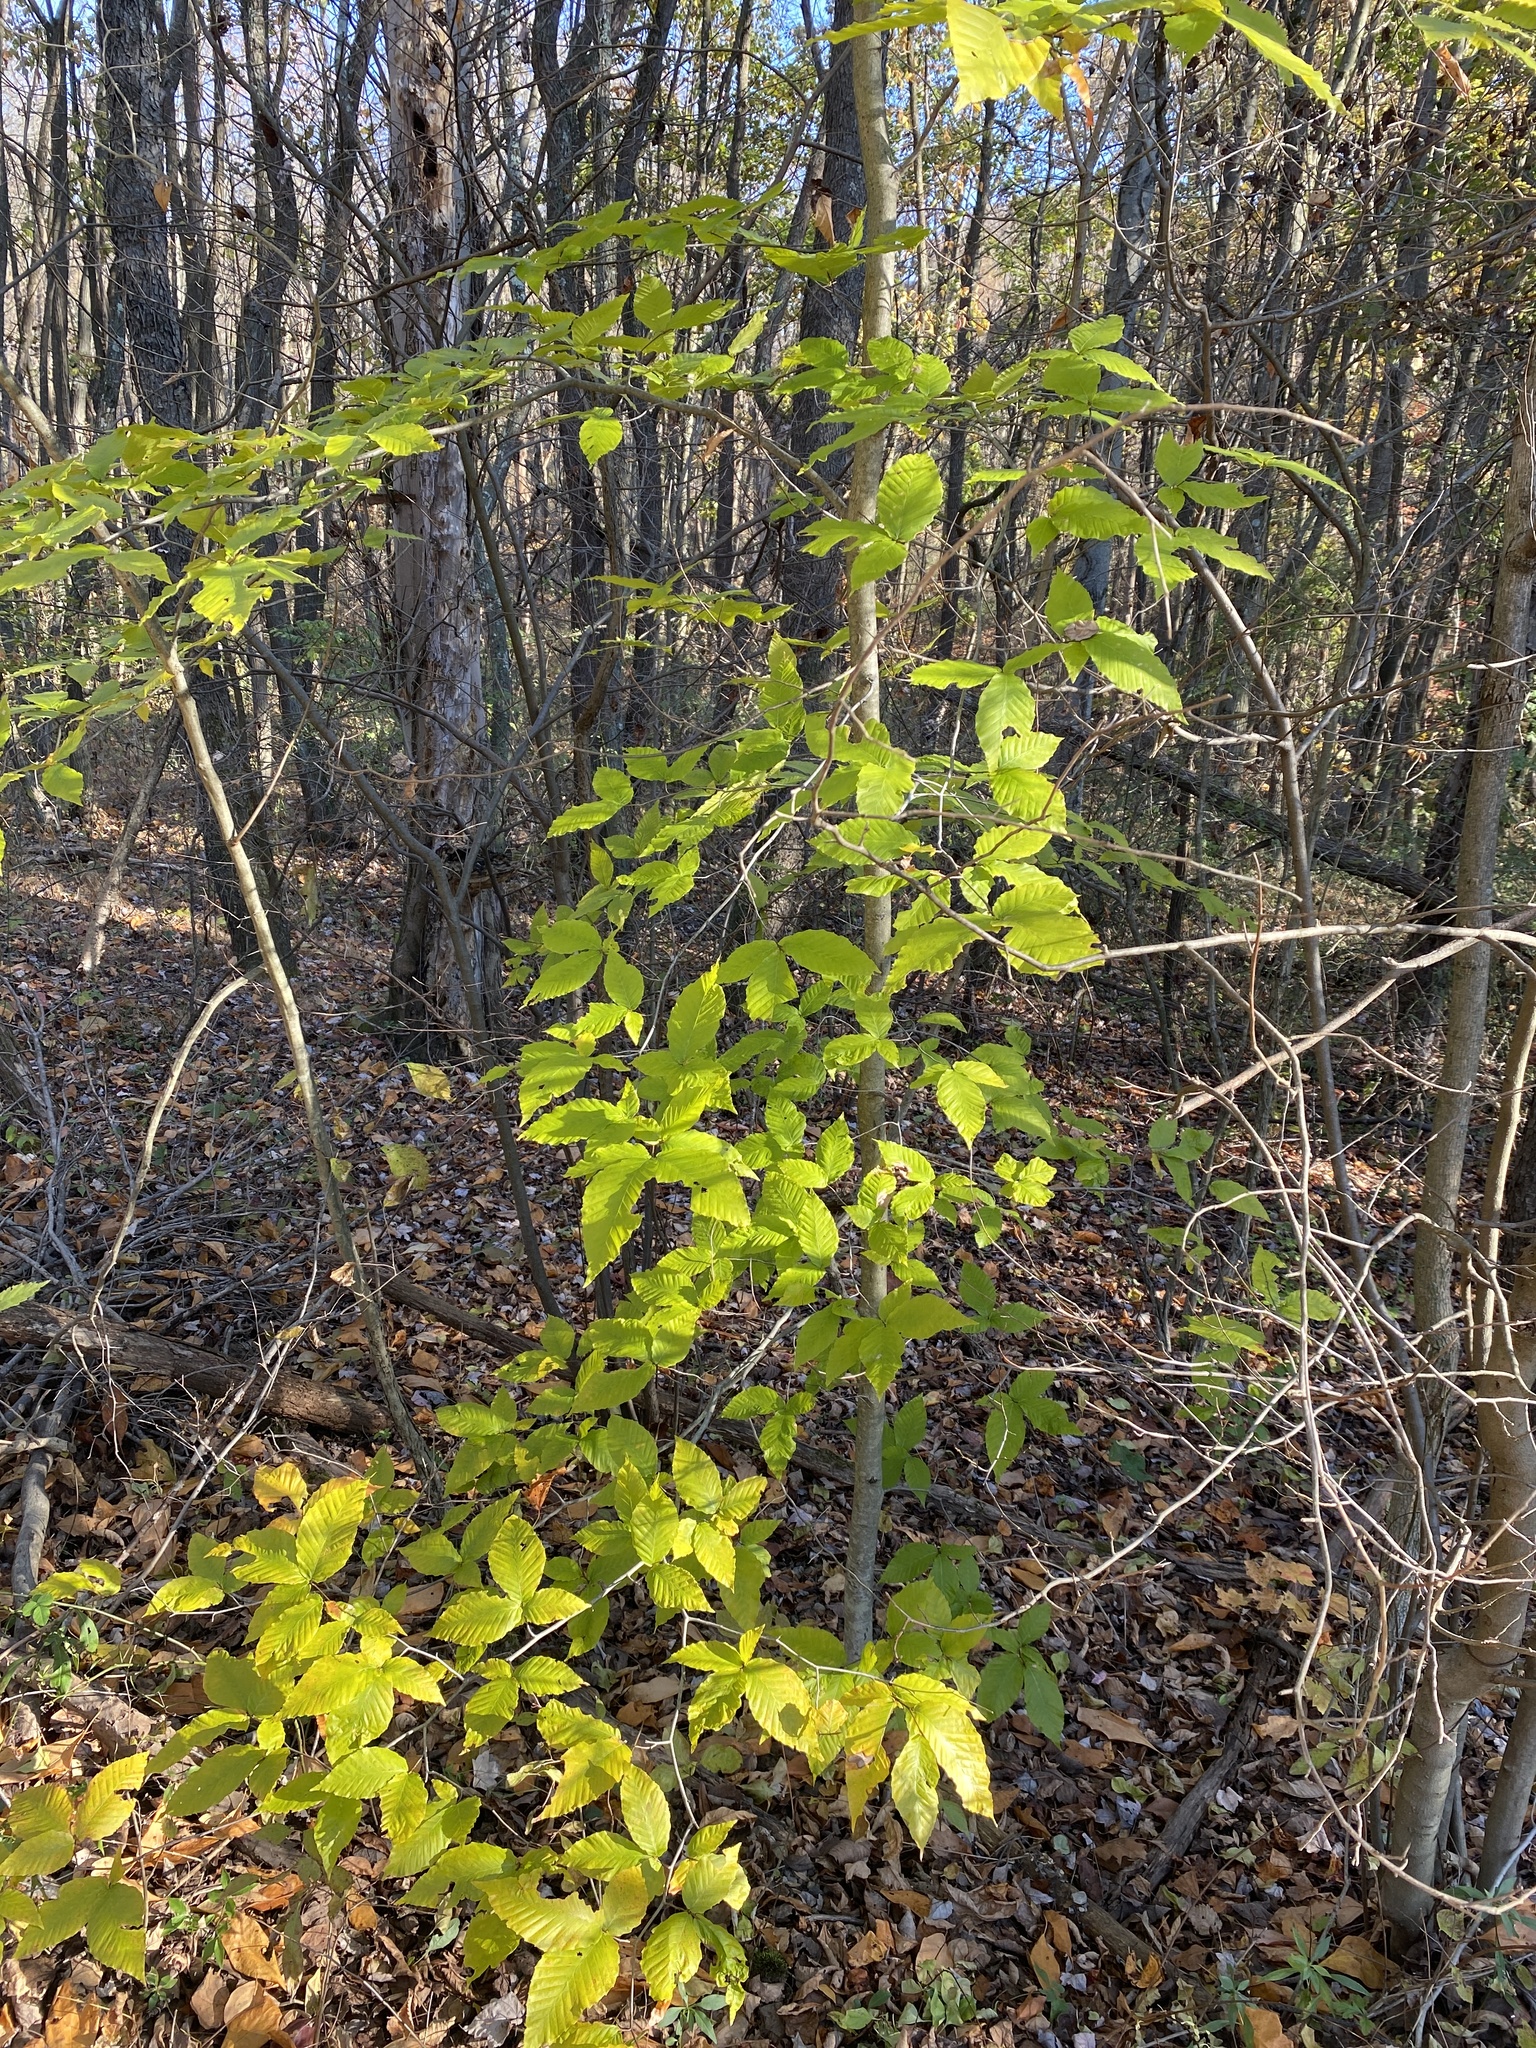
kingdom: Plantae
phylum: Tracheophyta
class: Magnoliopsida
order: Fagales
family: Fagaceae
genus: Fagus
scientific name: Fagus grandifolia
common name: American beech
